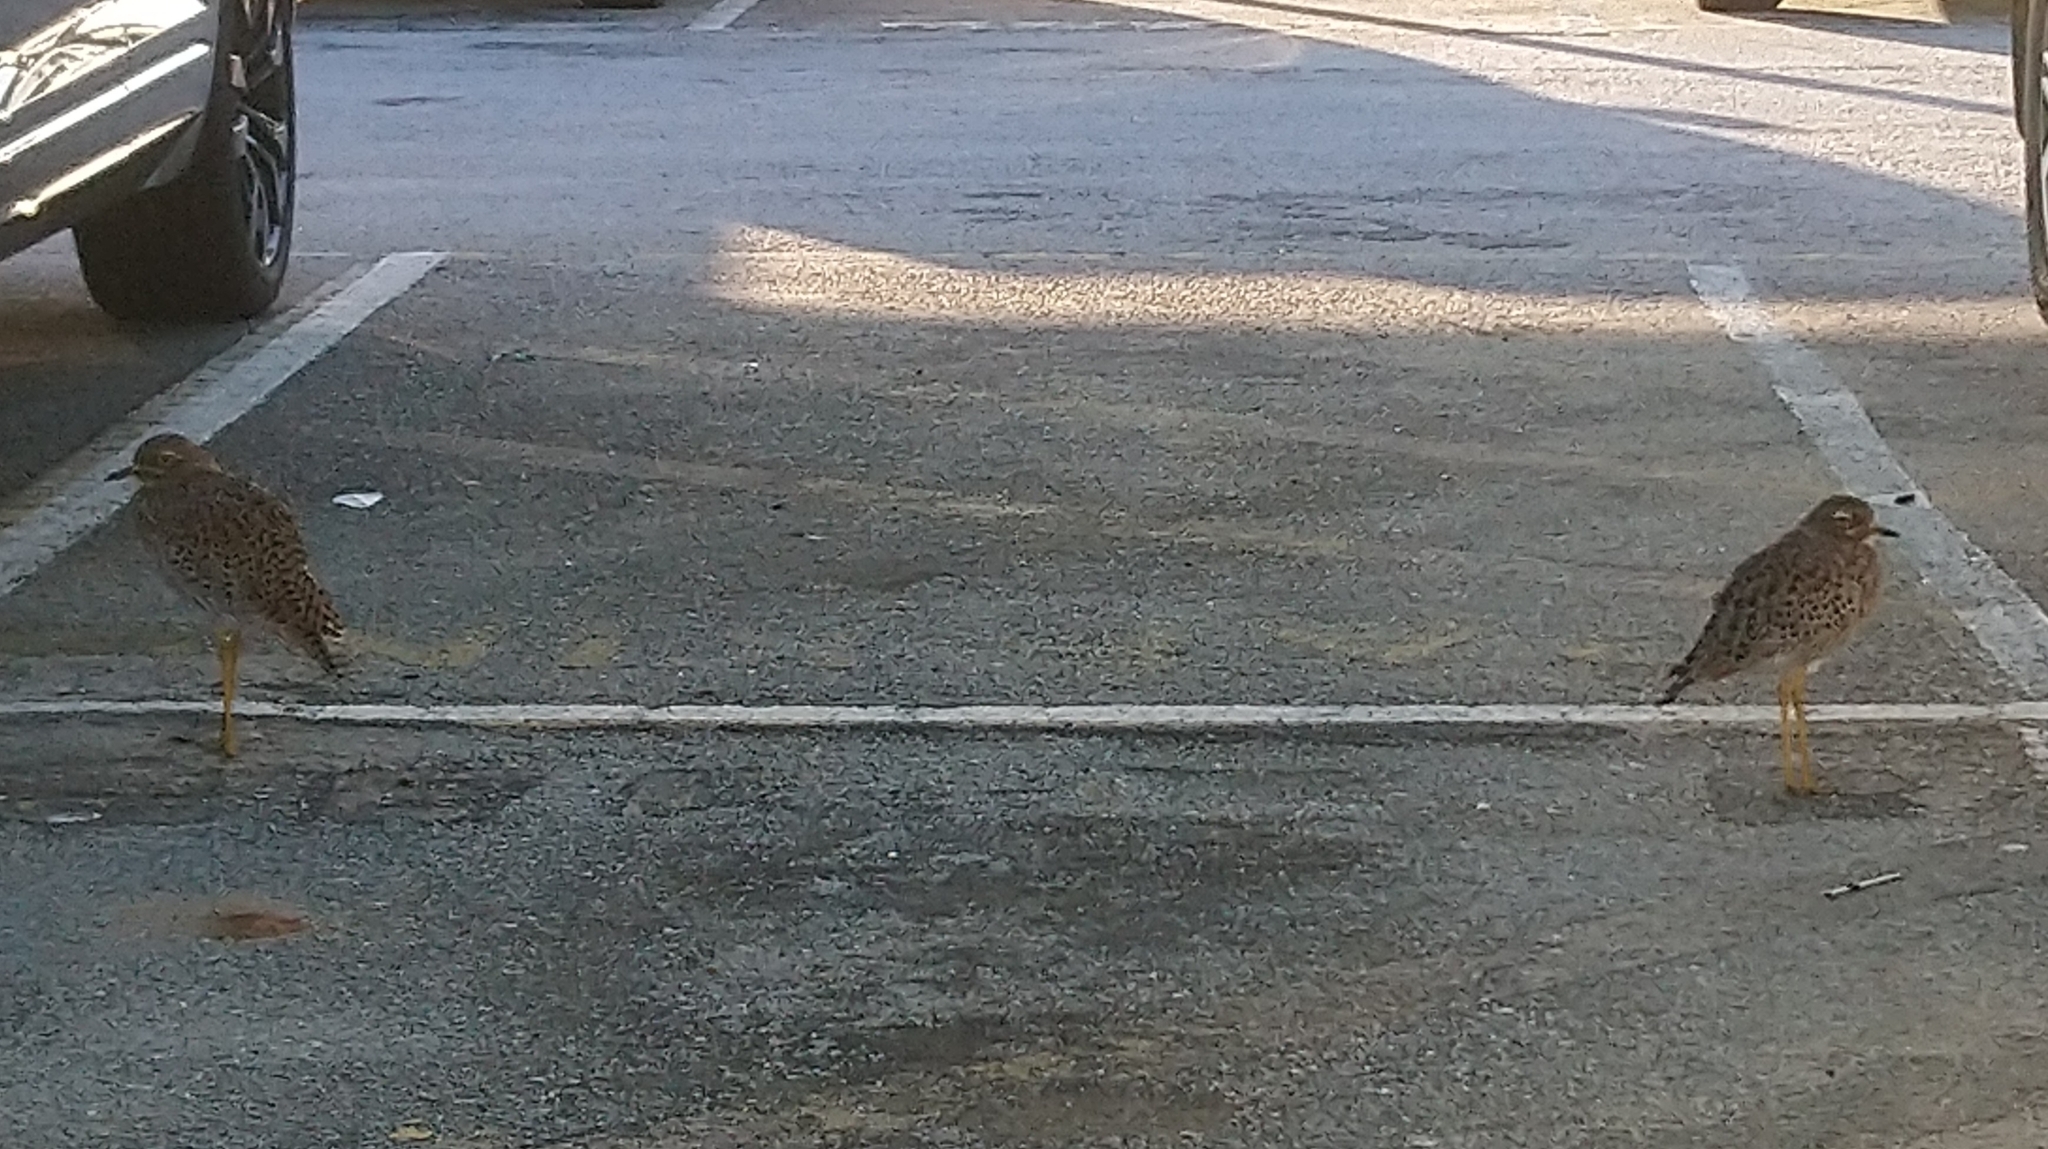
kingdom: Animalia
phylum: Chordata
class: Aves
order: Charadriiformes
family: Burhinidae
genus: Burhinus
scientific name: Burhinus capensis
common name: Spotted thick-knee
